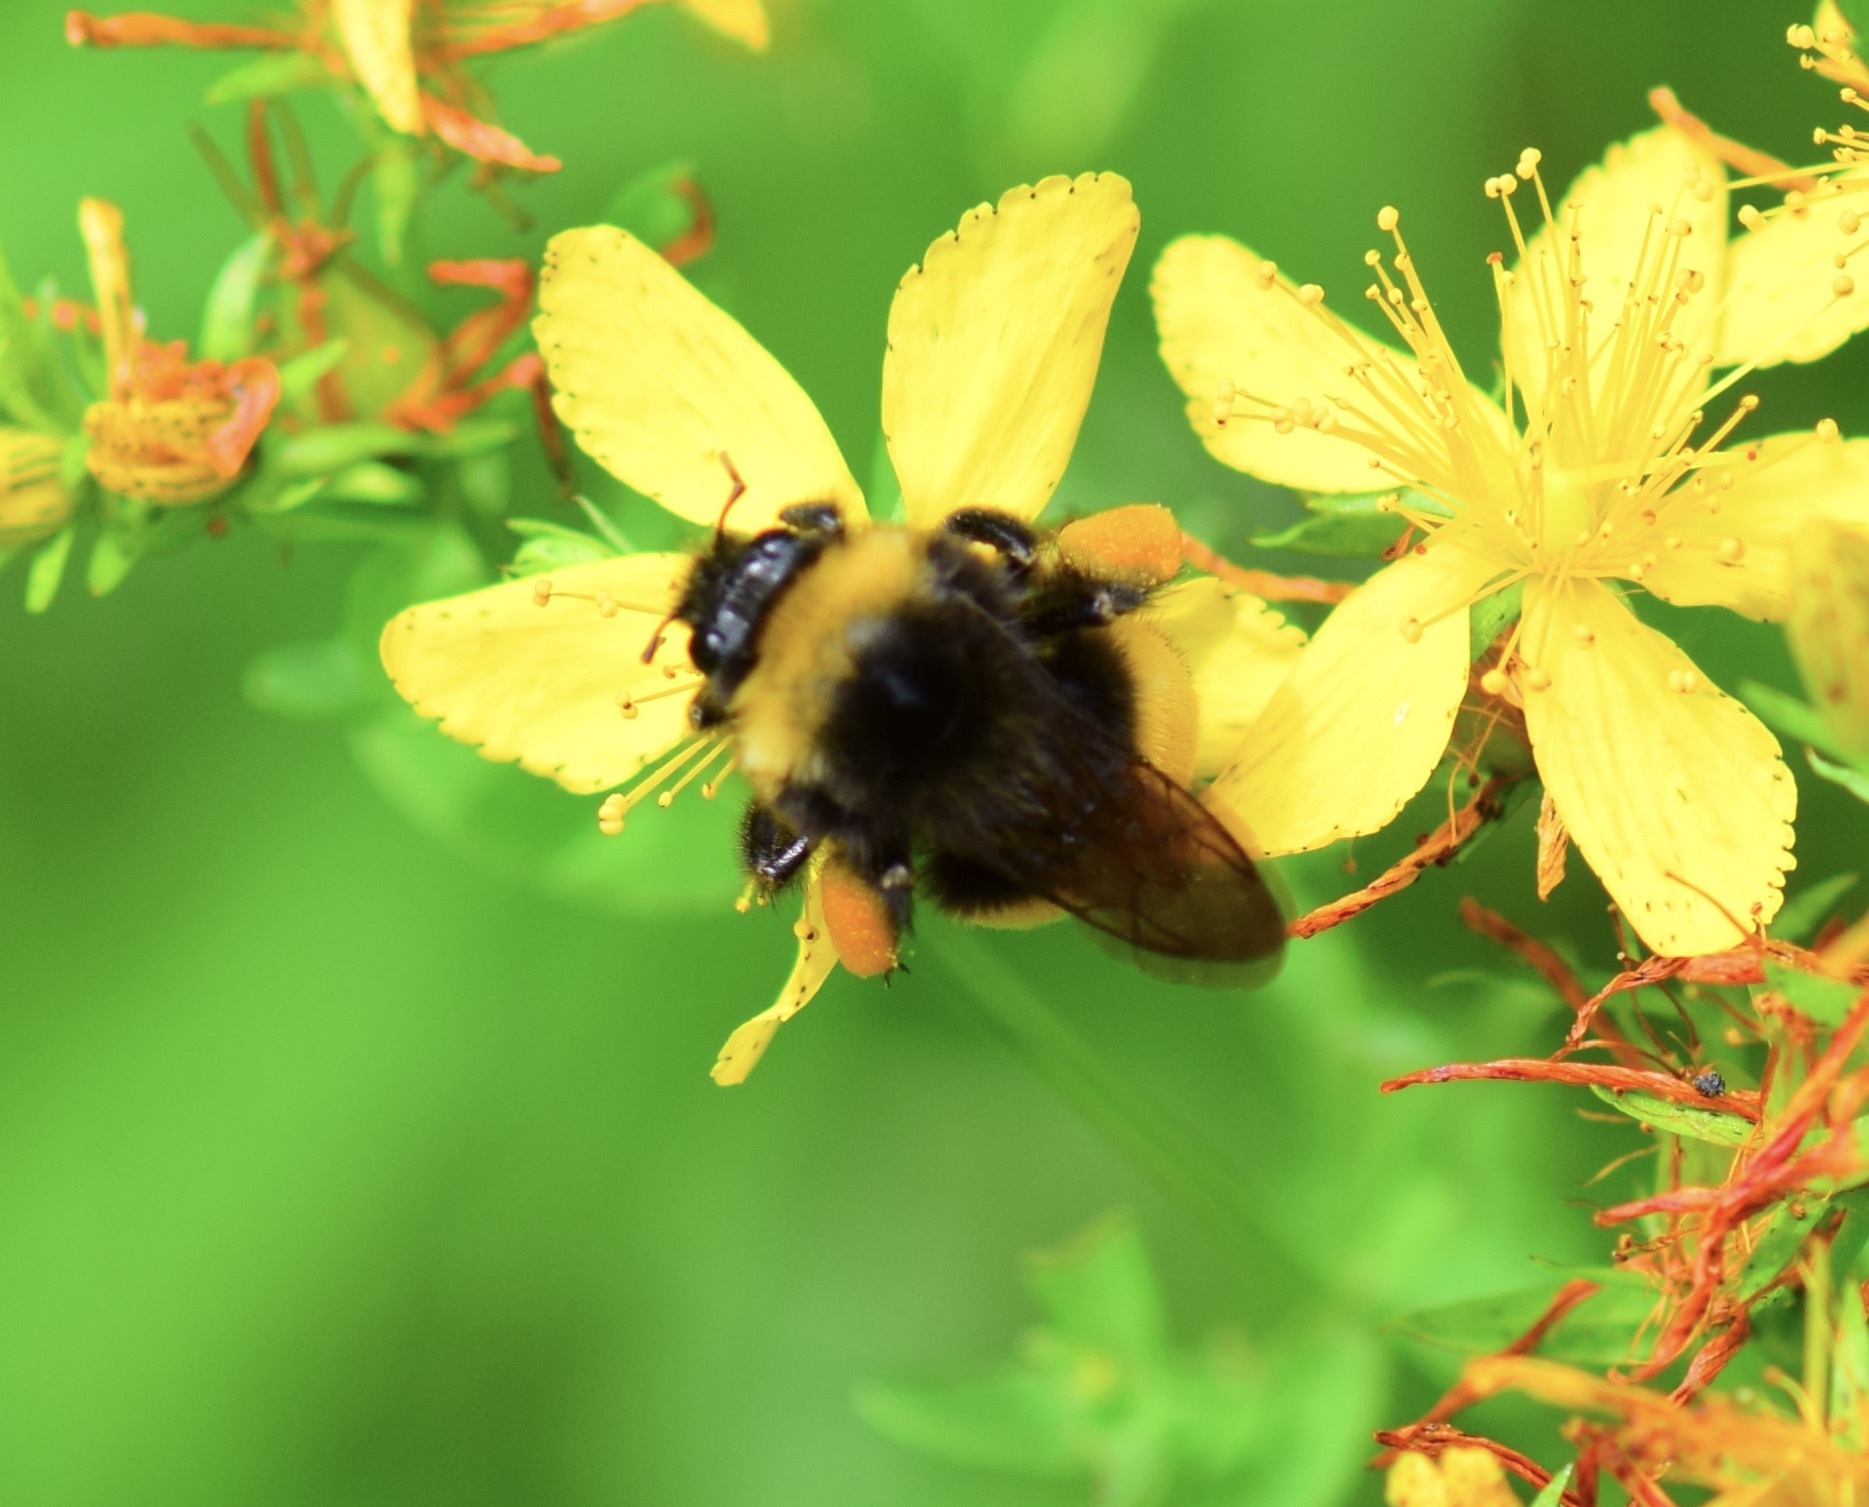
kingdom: Animalia
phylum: Arthropoda
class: Insecta
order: Hymenoptera
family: Apidae
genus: Bombus
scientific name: Bombus terricola
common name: Yellow-banded bumble bee
